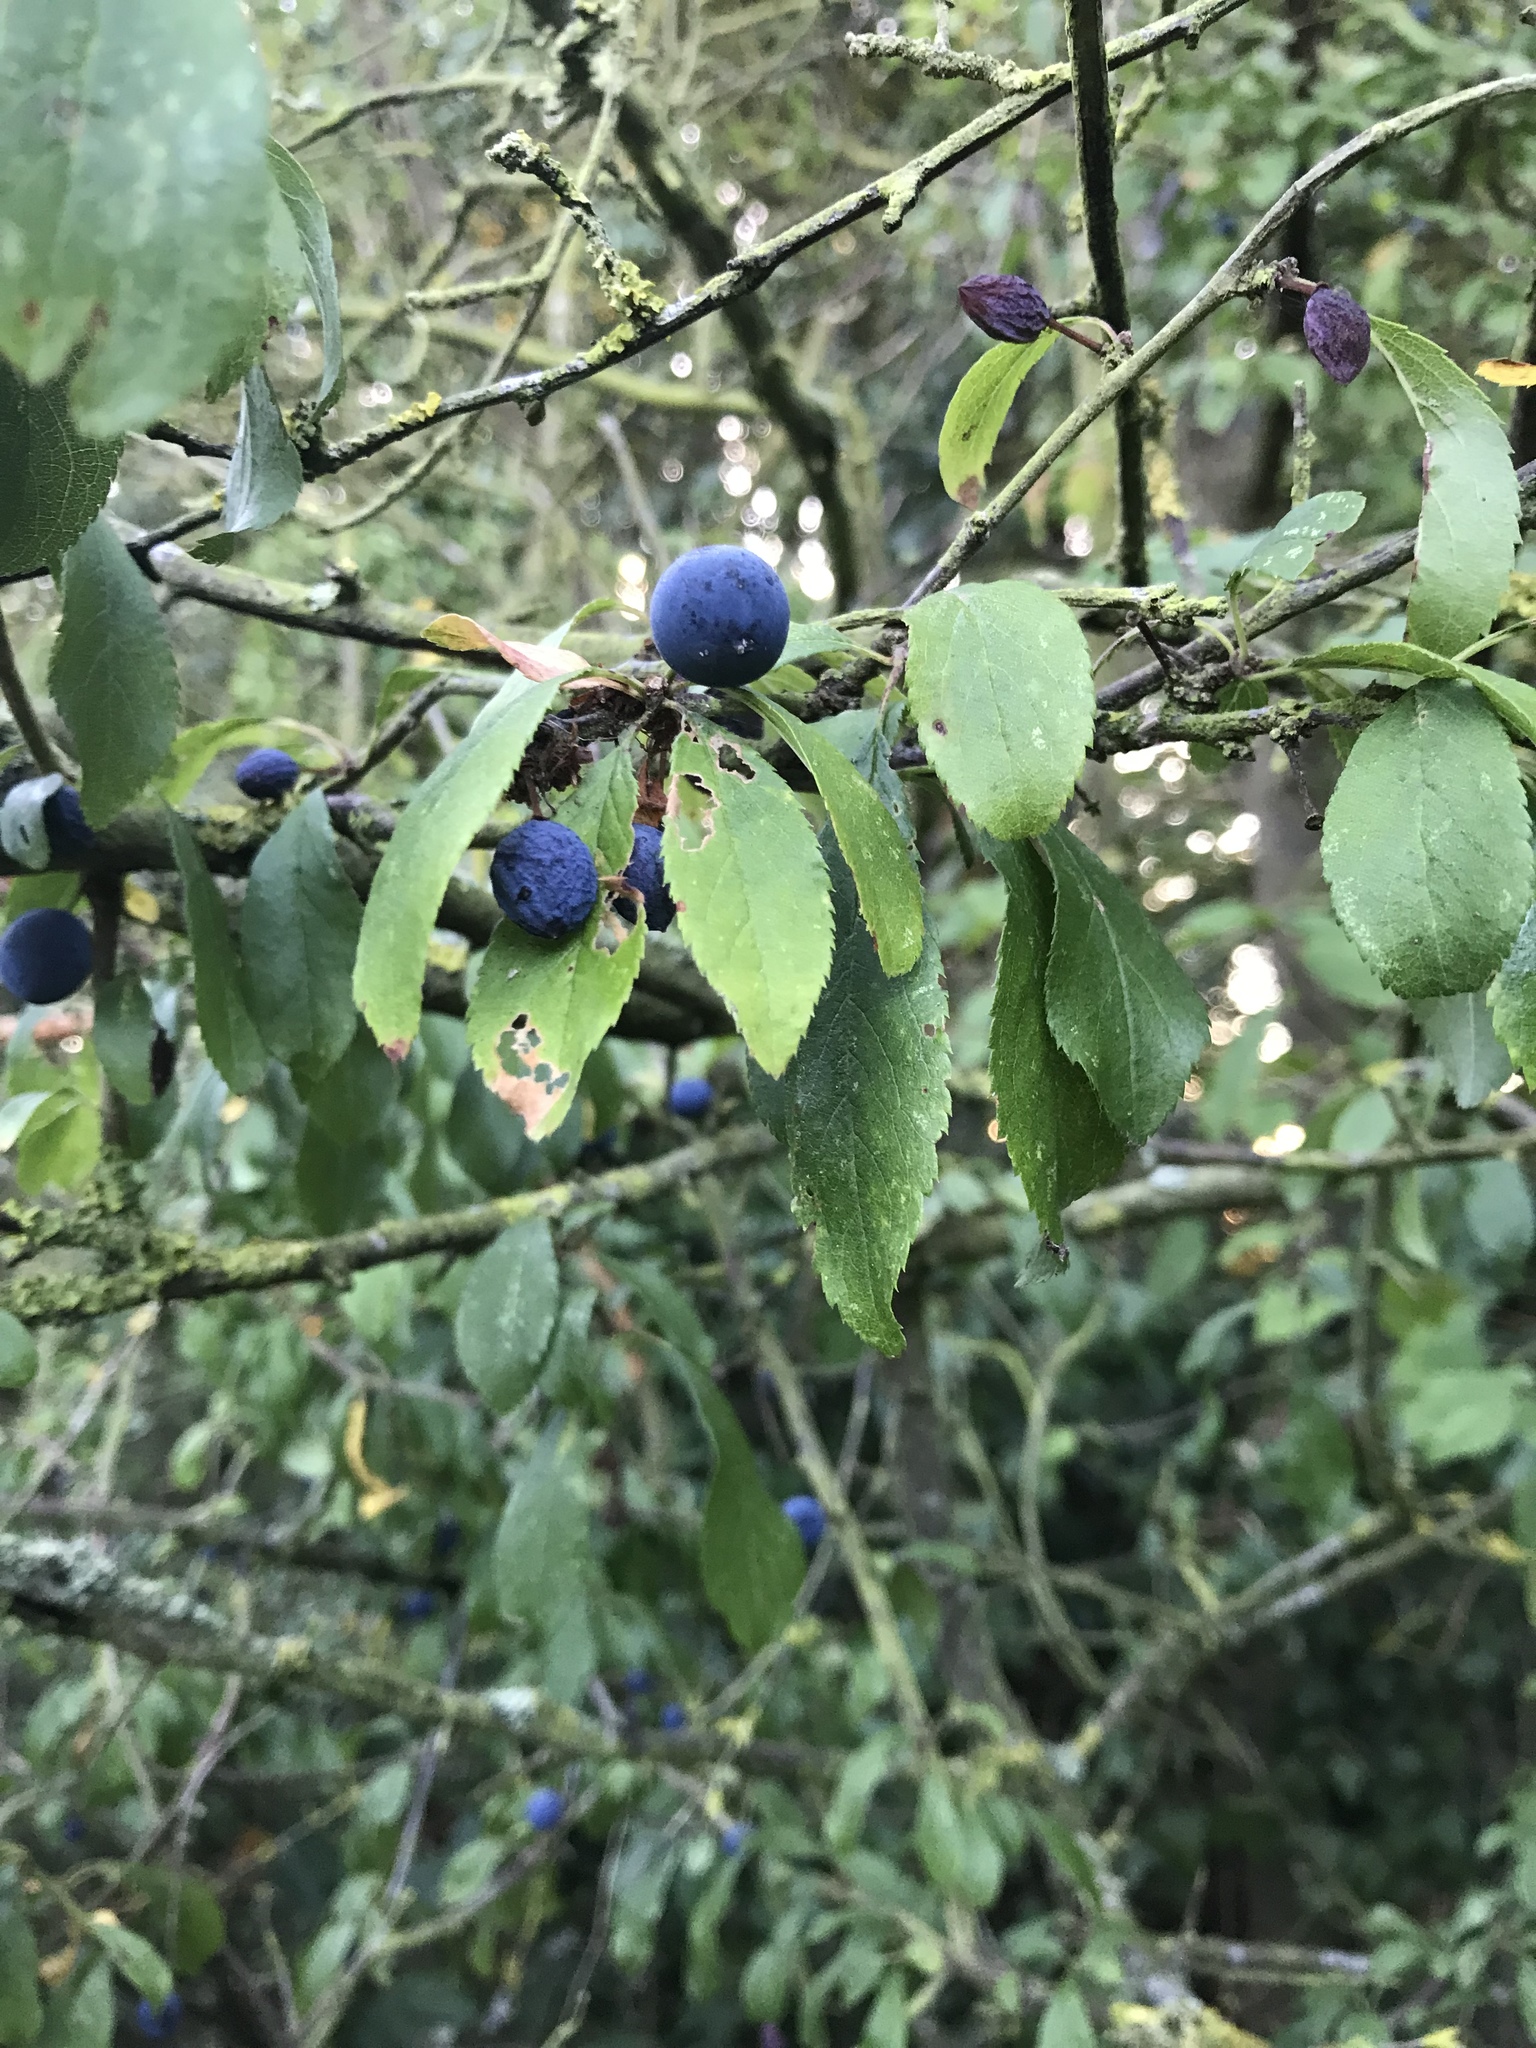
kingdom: Plantae
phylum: Tracheophyta
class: Magnoliopsida
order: Rosales
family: Rosaceae
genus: Prunus
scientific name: Prunus spinosa
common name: Blackthorn
